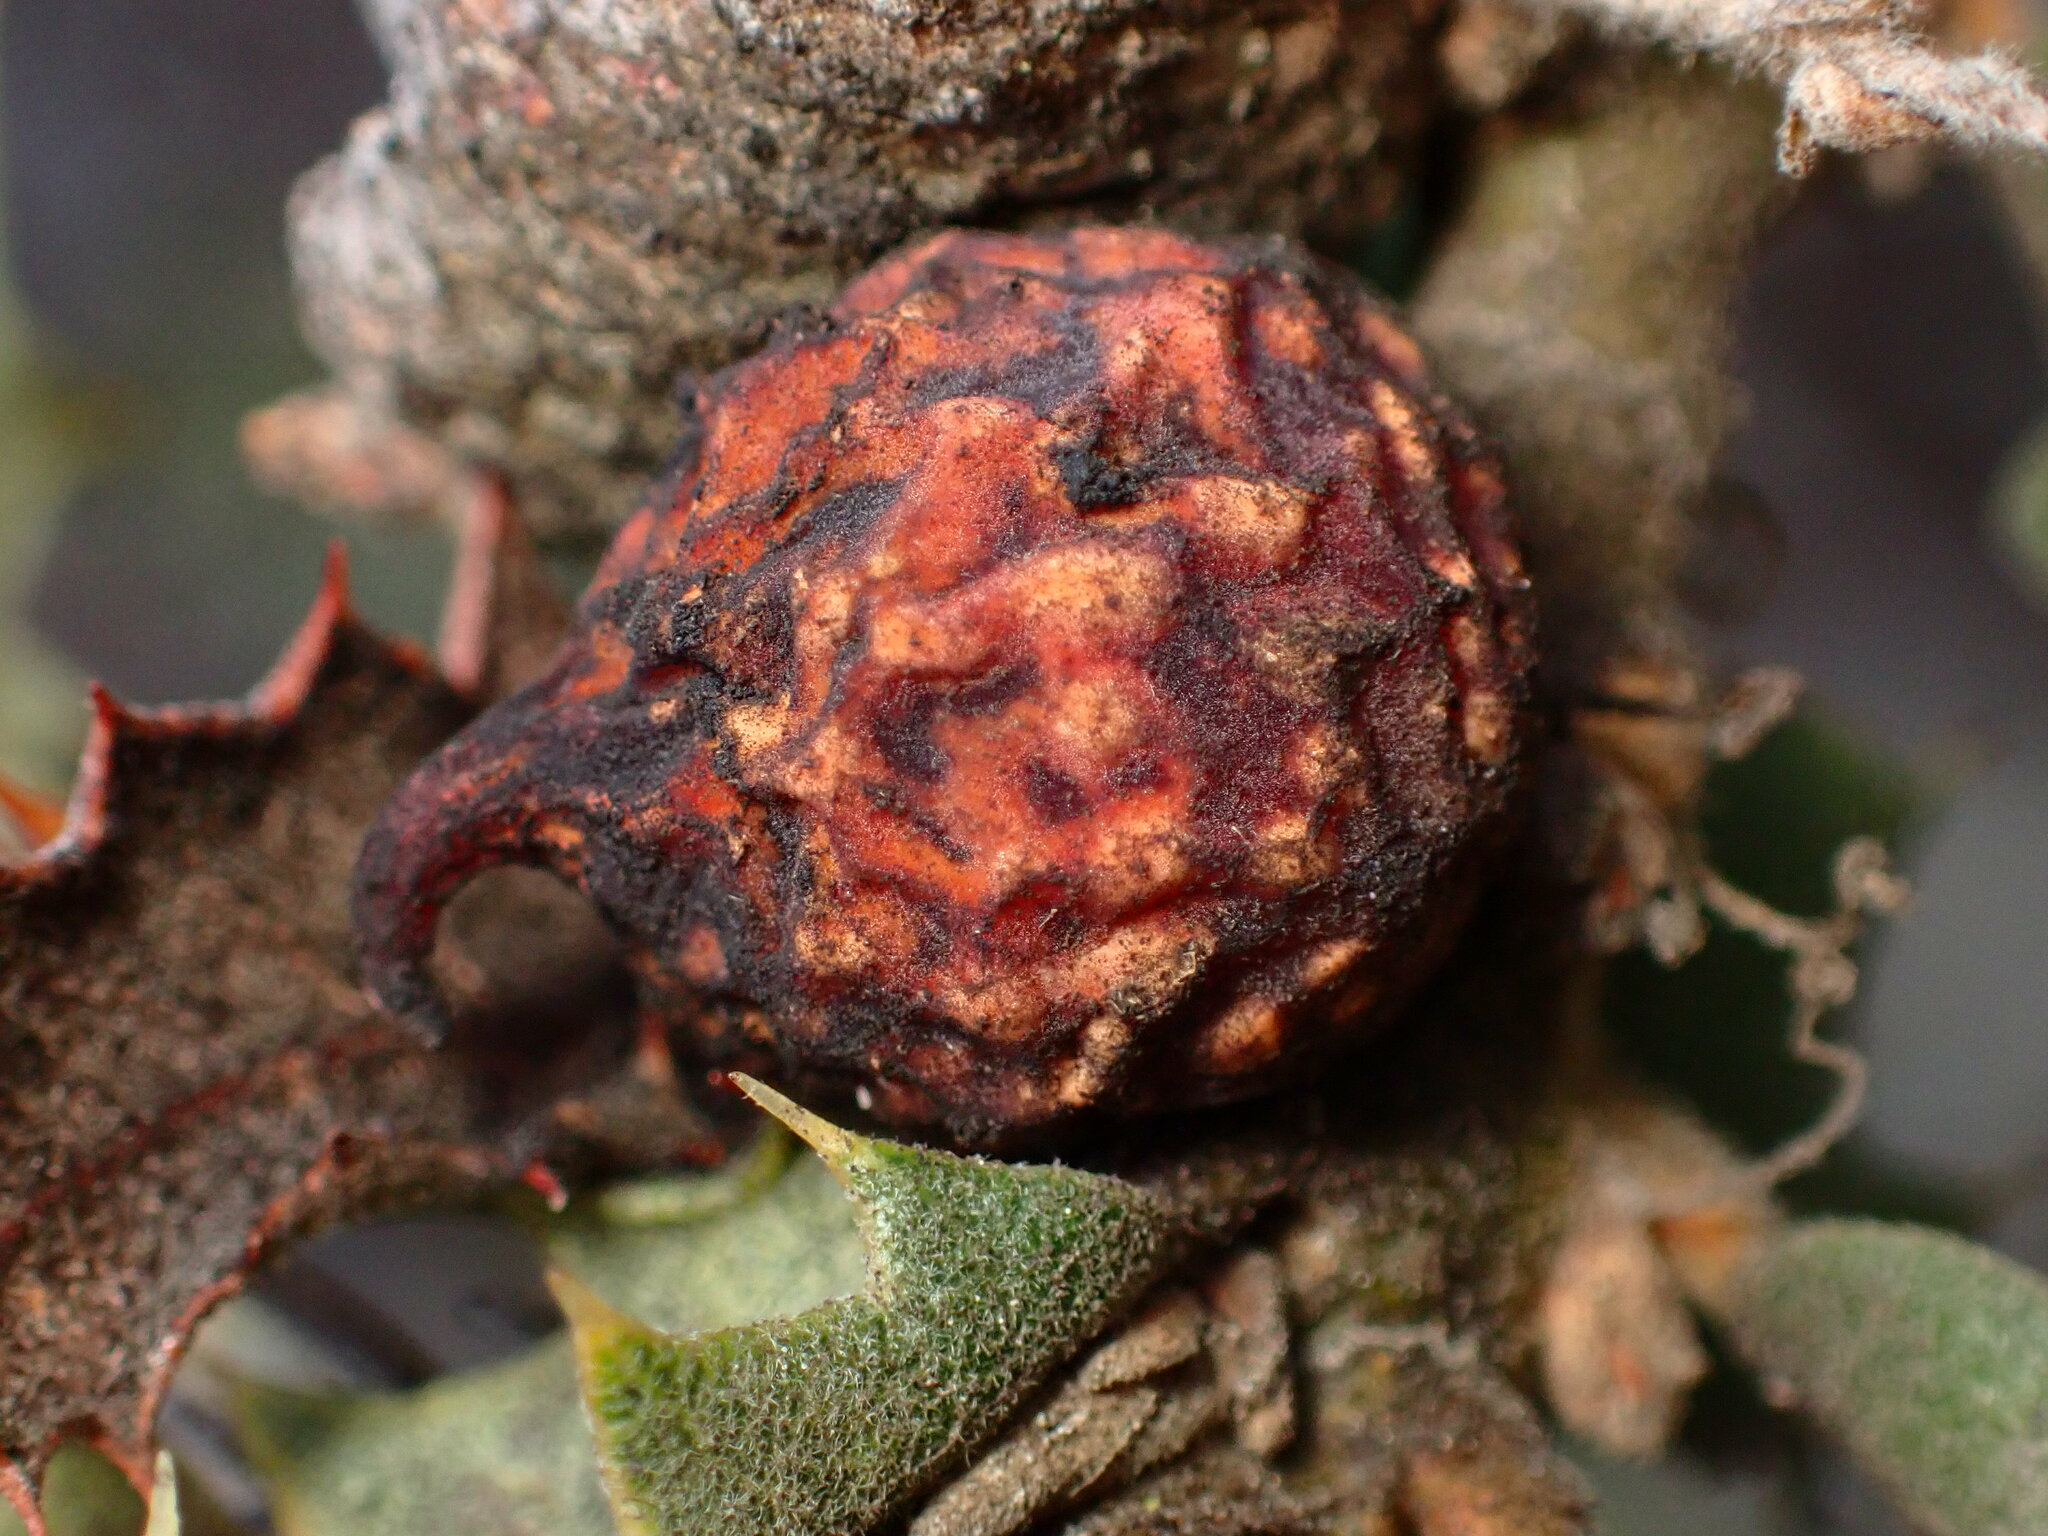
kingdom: Animalia
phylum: Arthropoda
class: Insecta
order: Hymenoptera
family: Cynipidae
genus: Burnettweldia
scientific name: Burnettweldia
